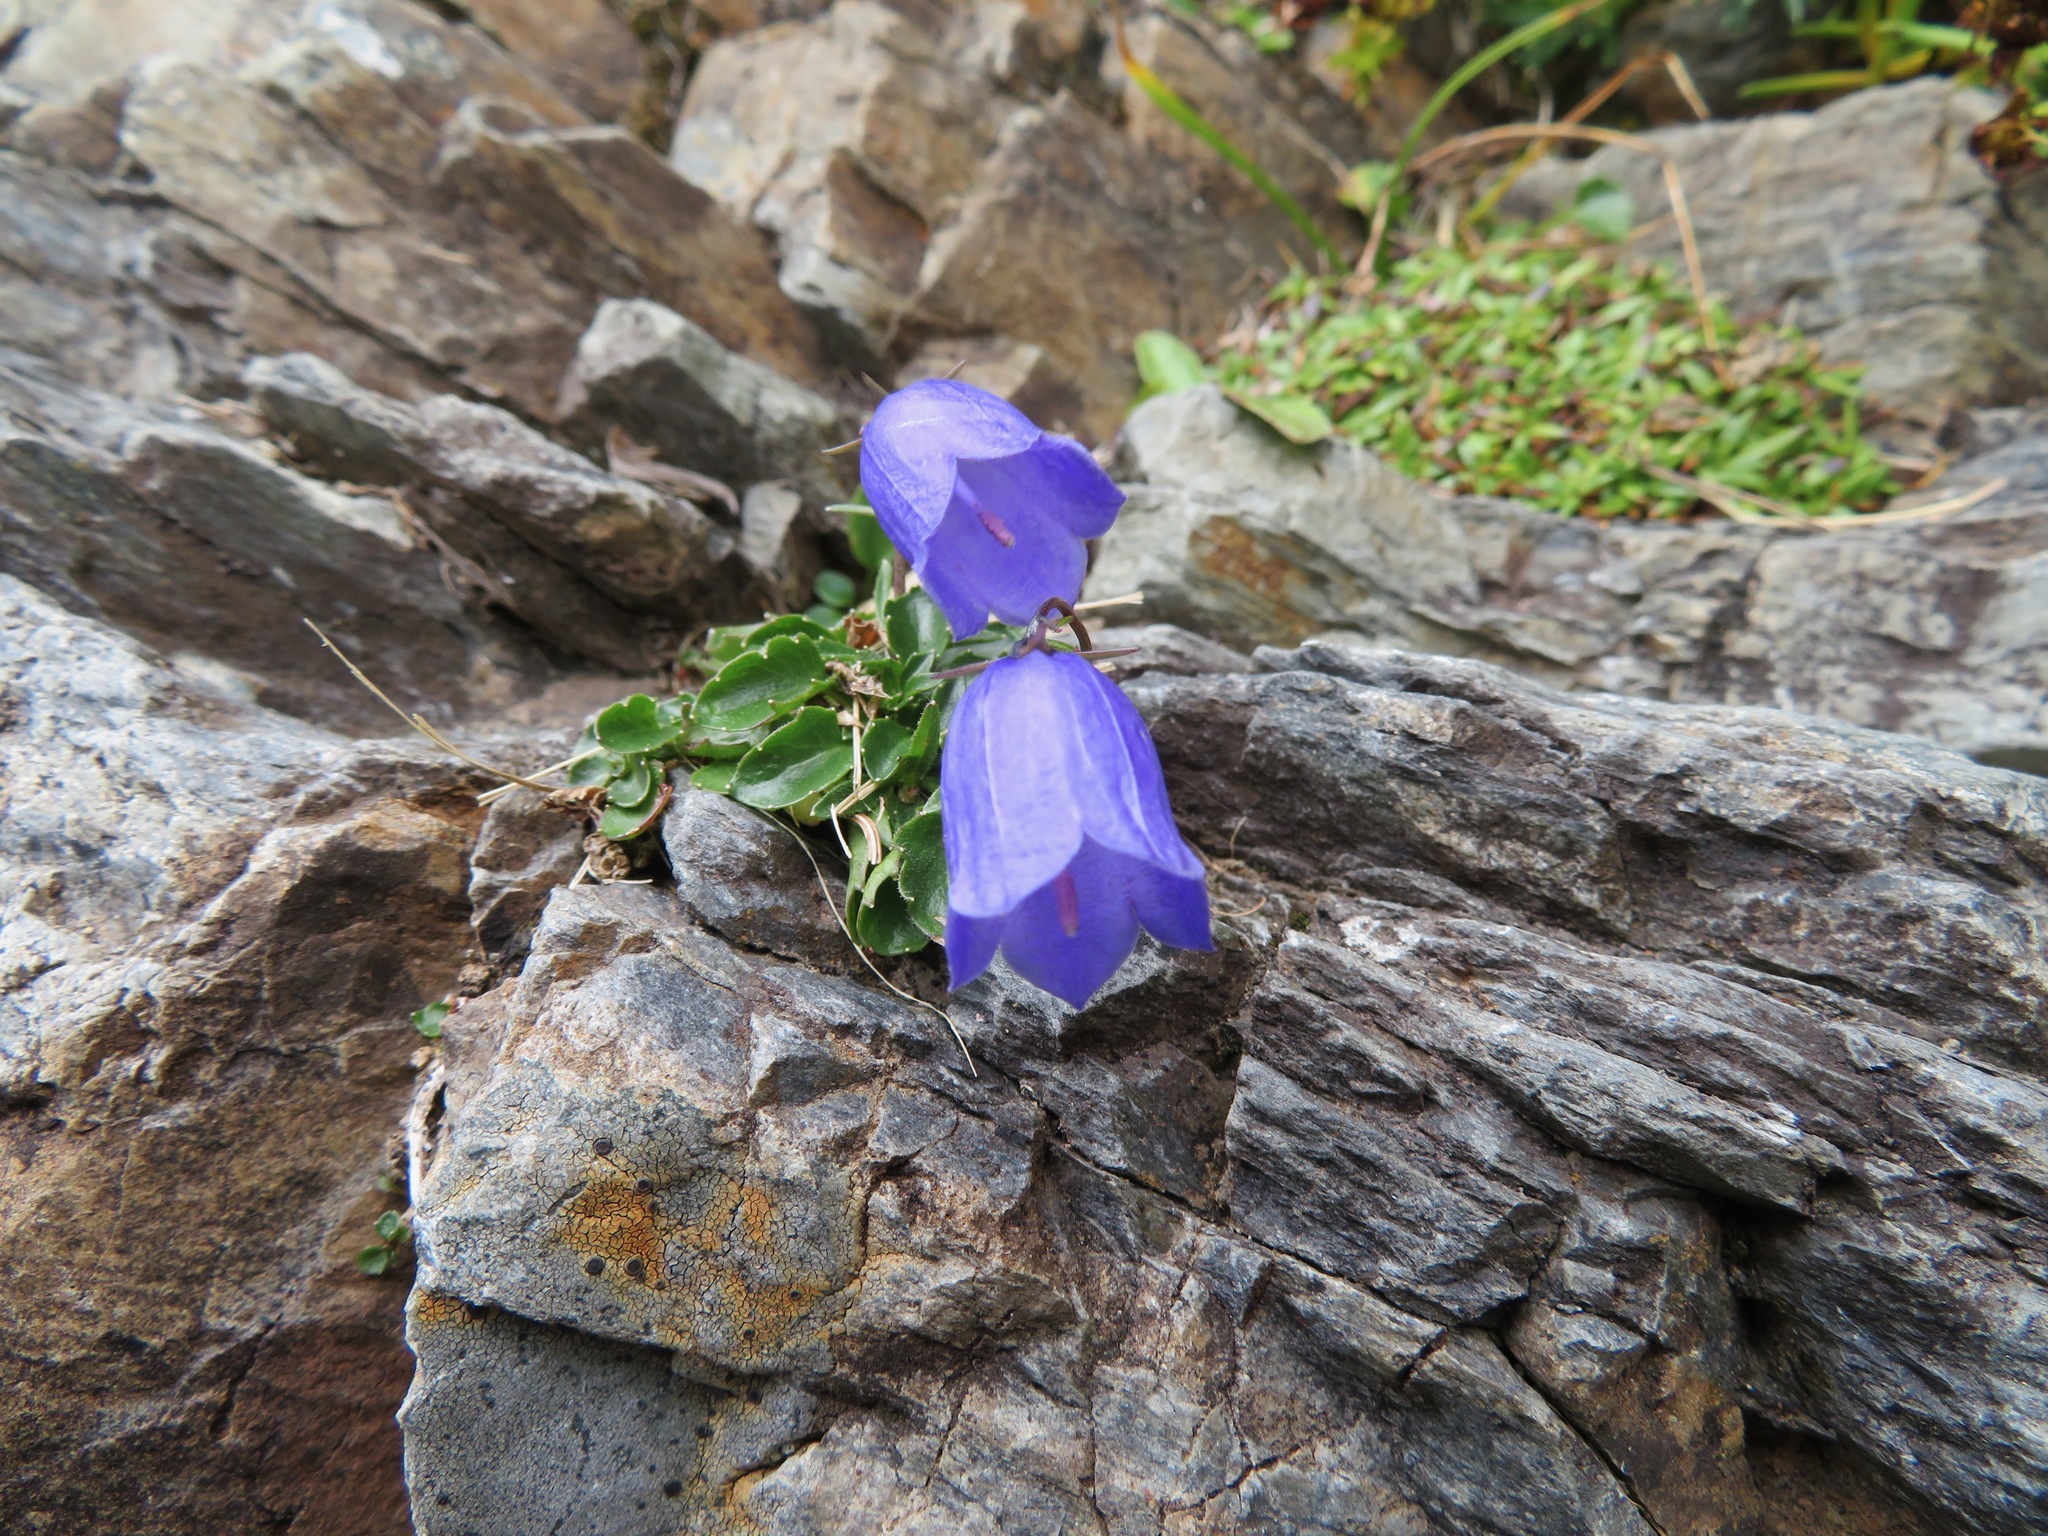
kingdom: Plantae
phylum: Tracheophyta
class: Magnoliopsida
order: Asterales
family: Campanulaceae
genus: Campanula
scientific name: Campanula cochleariifolia
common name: Fairies'-thimbles
